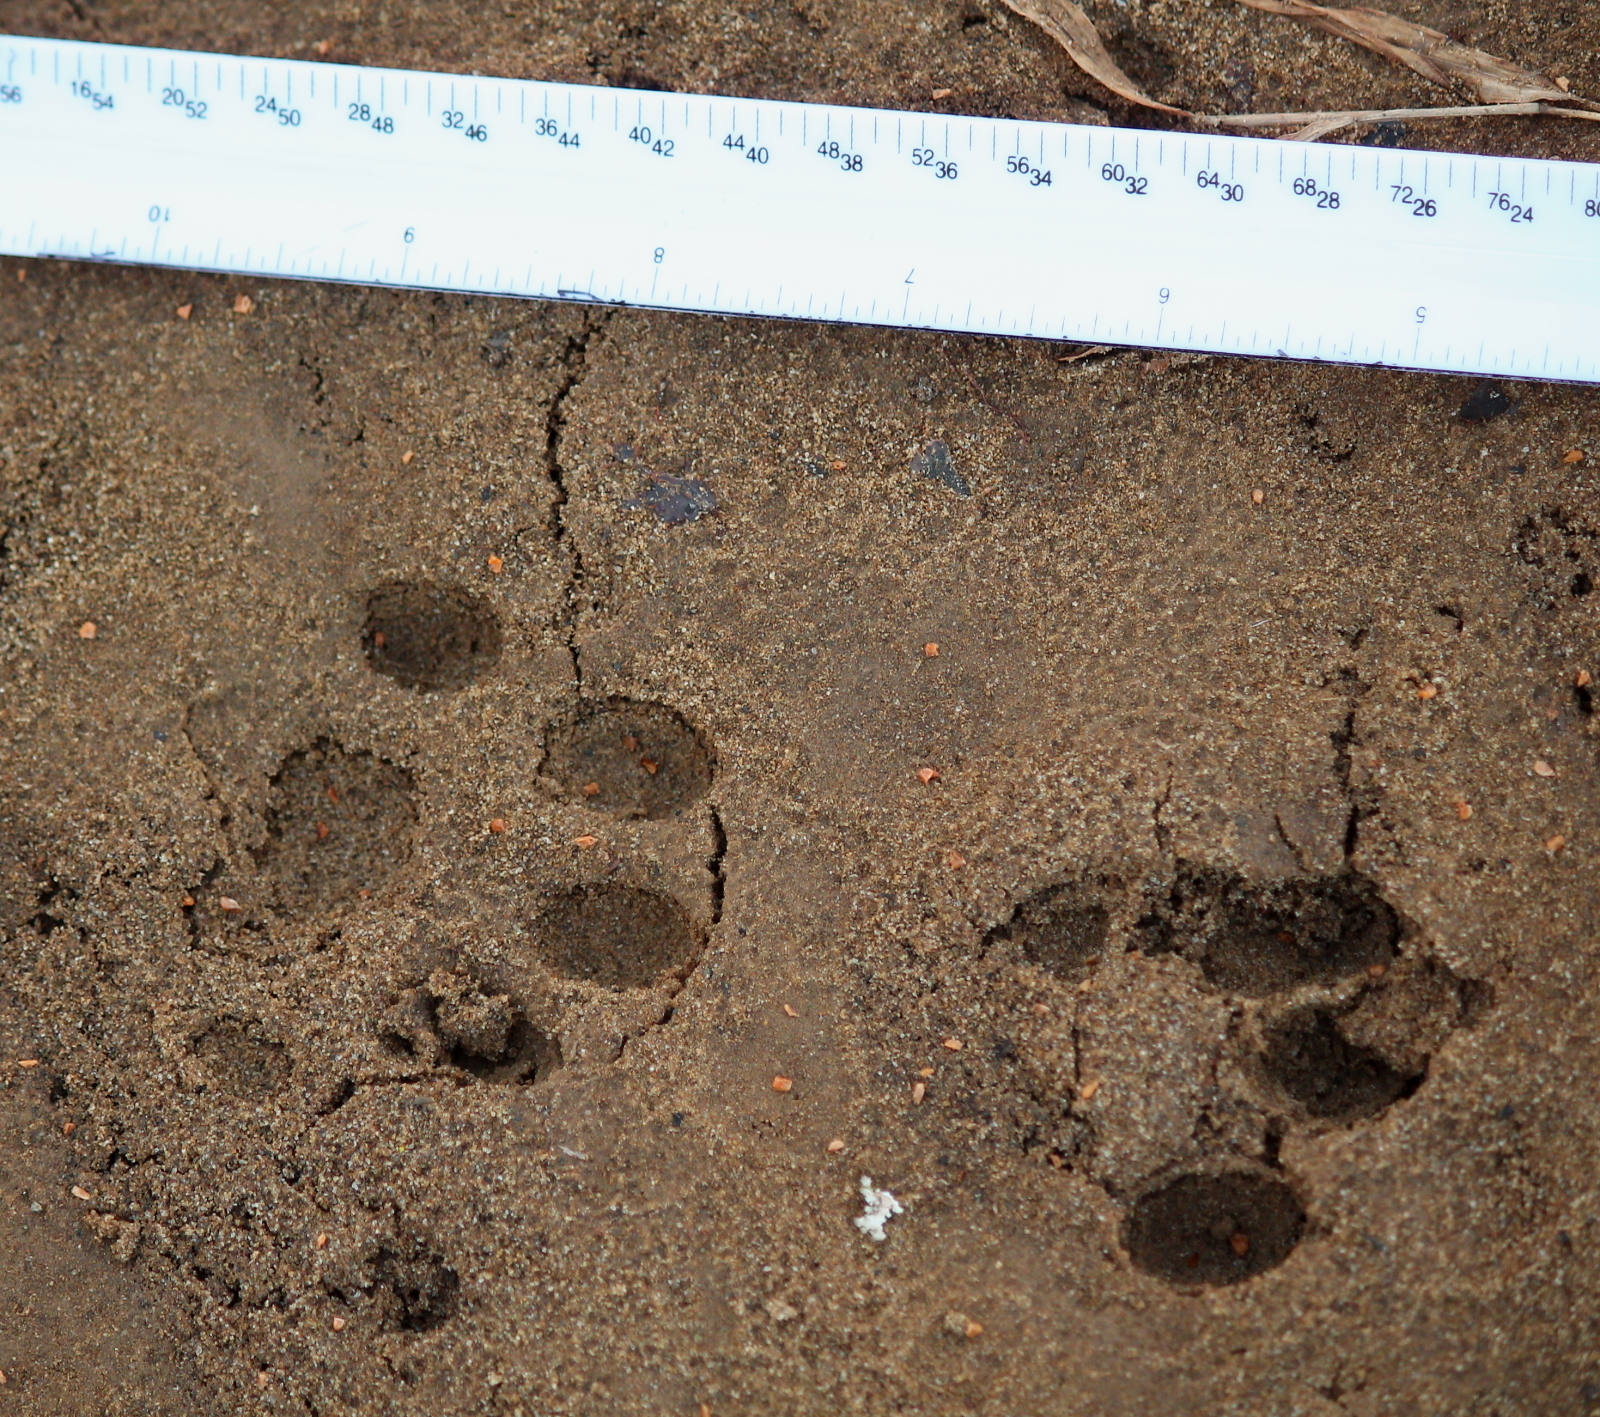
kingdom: Animalia
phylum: Chordata
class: Mammalia
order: Carnivora
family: Canidae
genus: Canis
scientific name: Canis lupus
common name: Gray wolf
